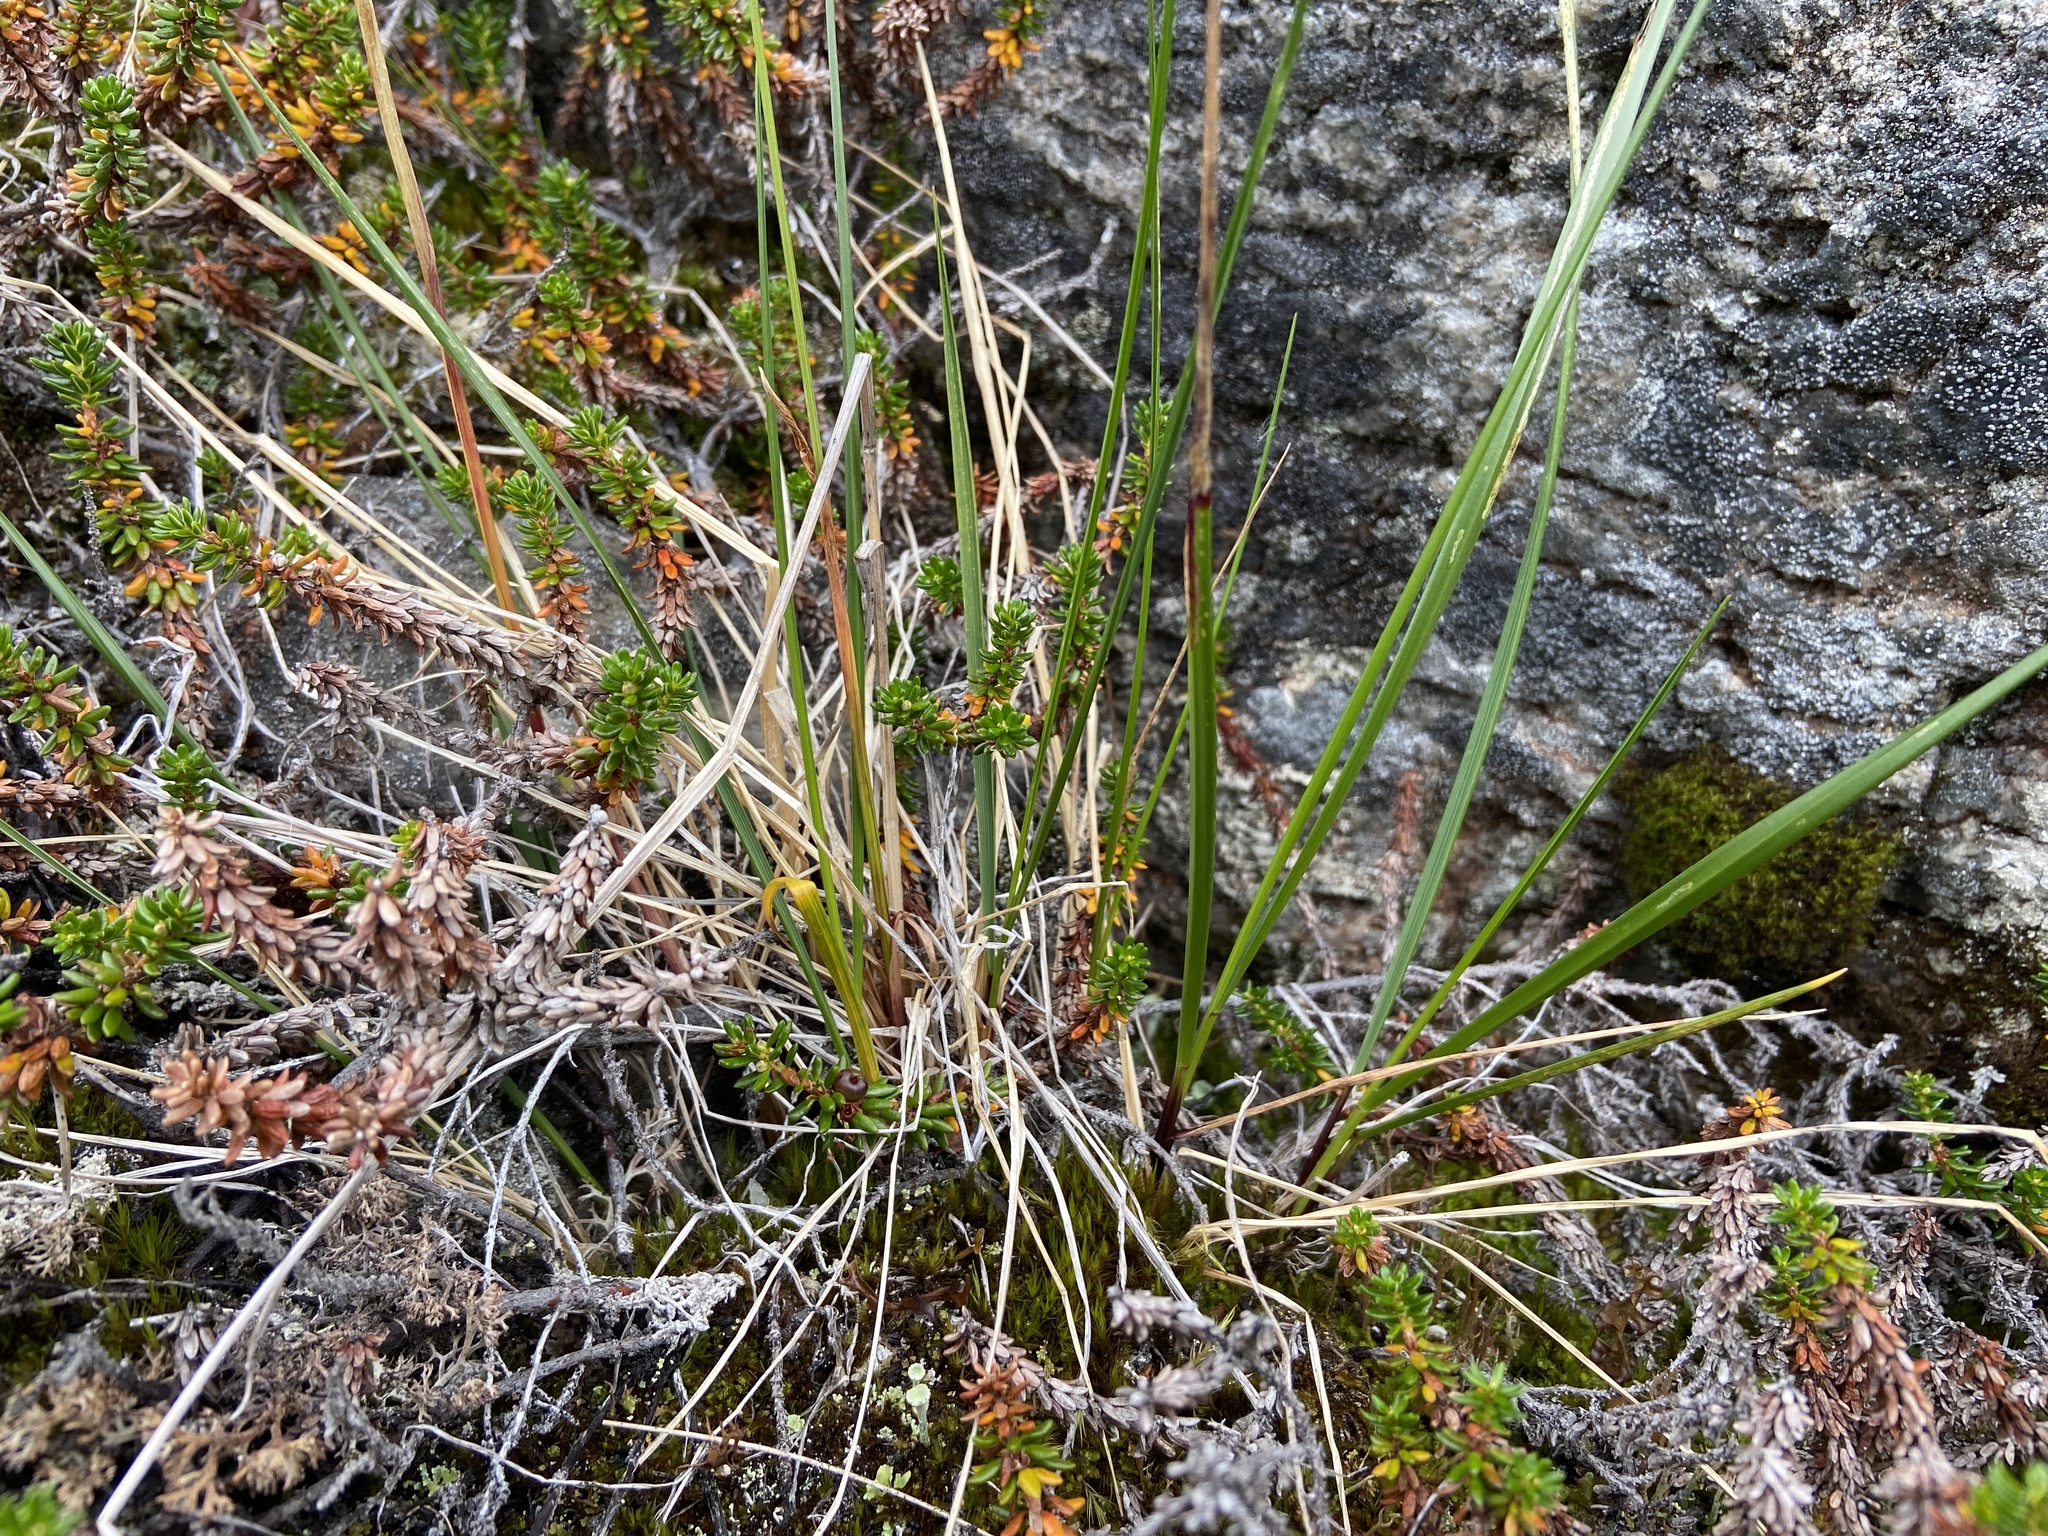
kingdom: Plantae
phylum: Tracheophyta
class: Liliopsida
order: Poales
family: Poaceae
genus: Anthoxanthum
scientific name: Anthoxanthum monticola
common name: Alpine sweetgrass
